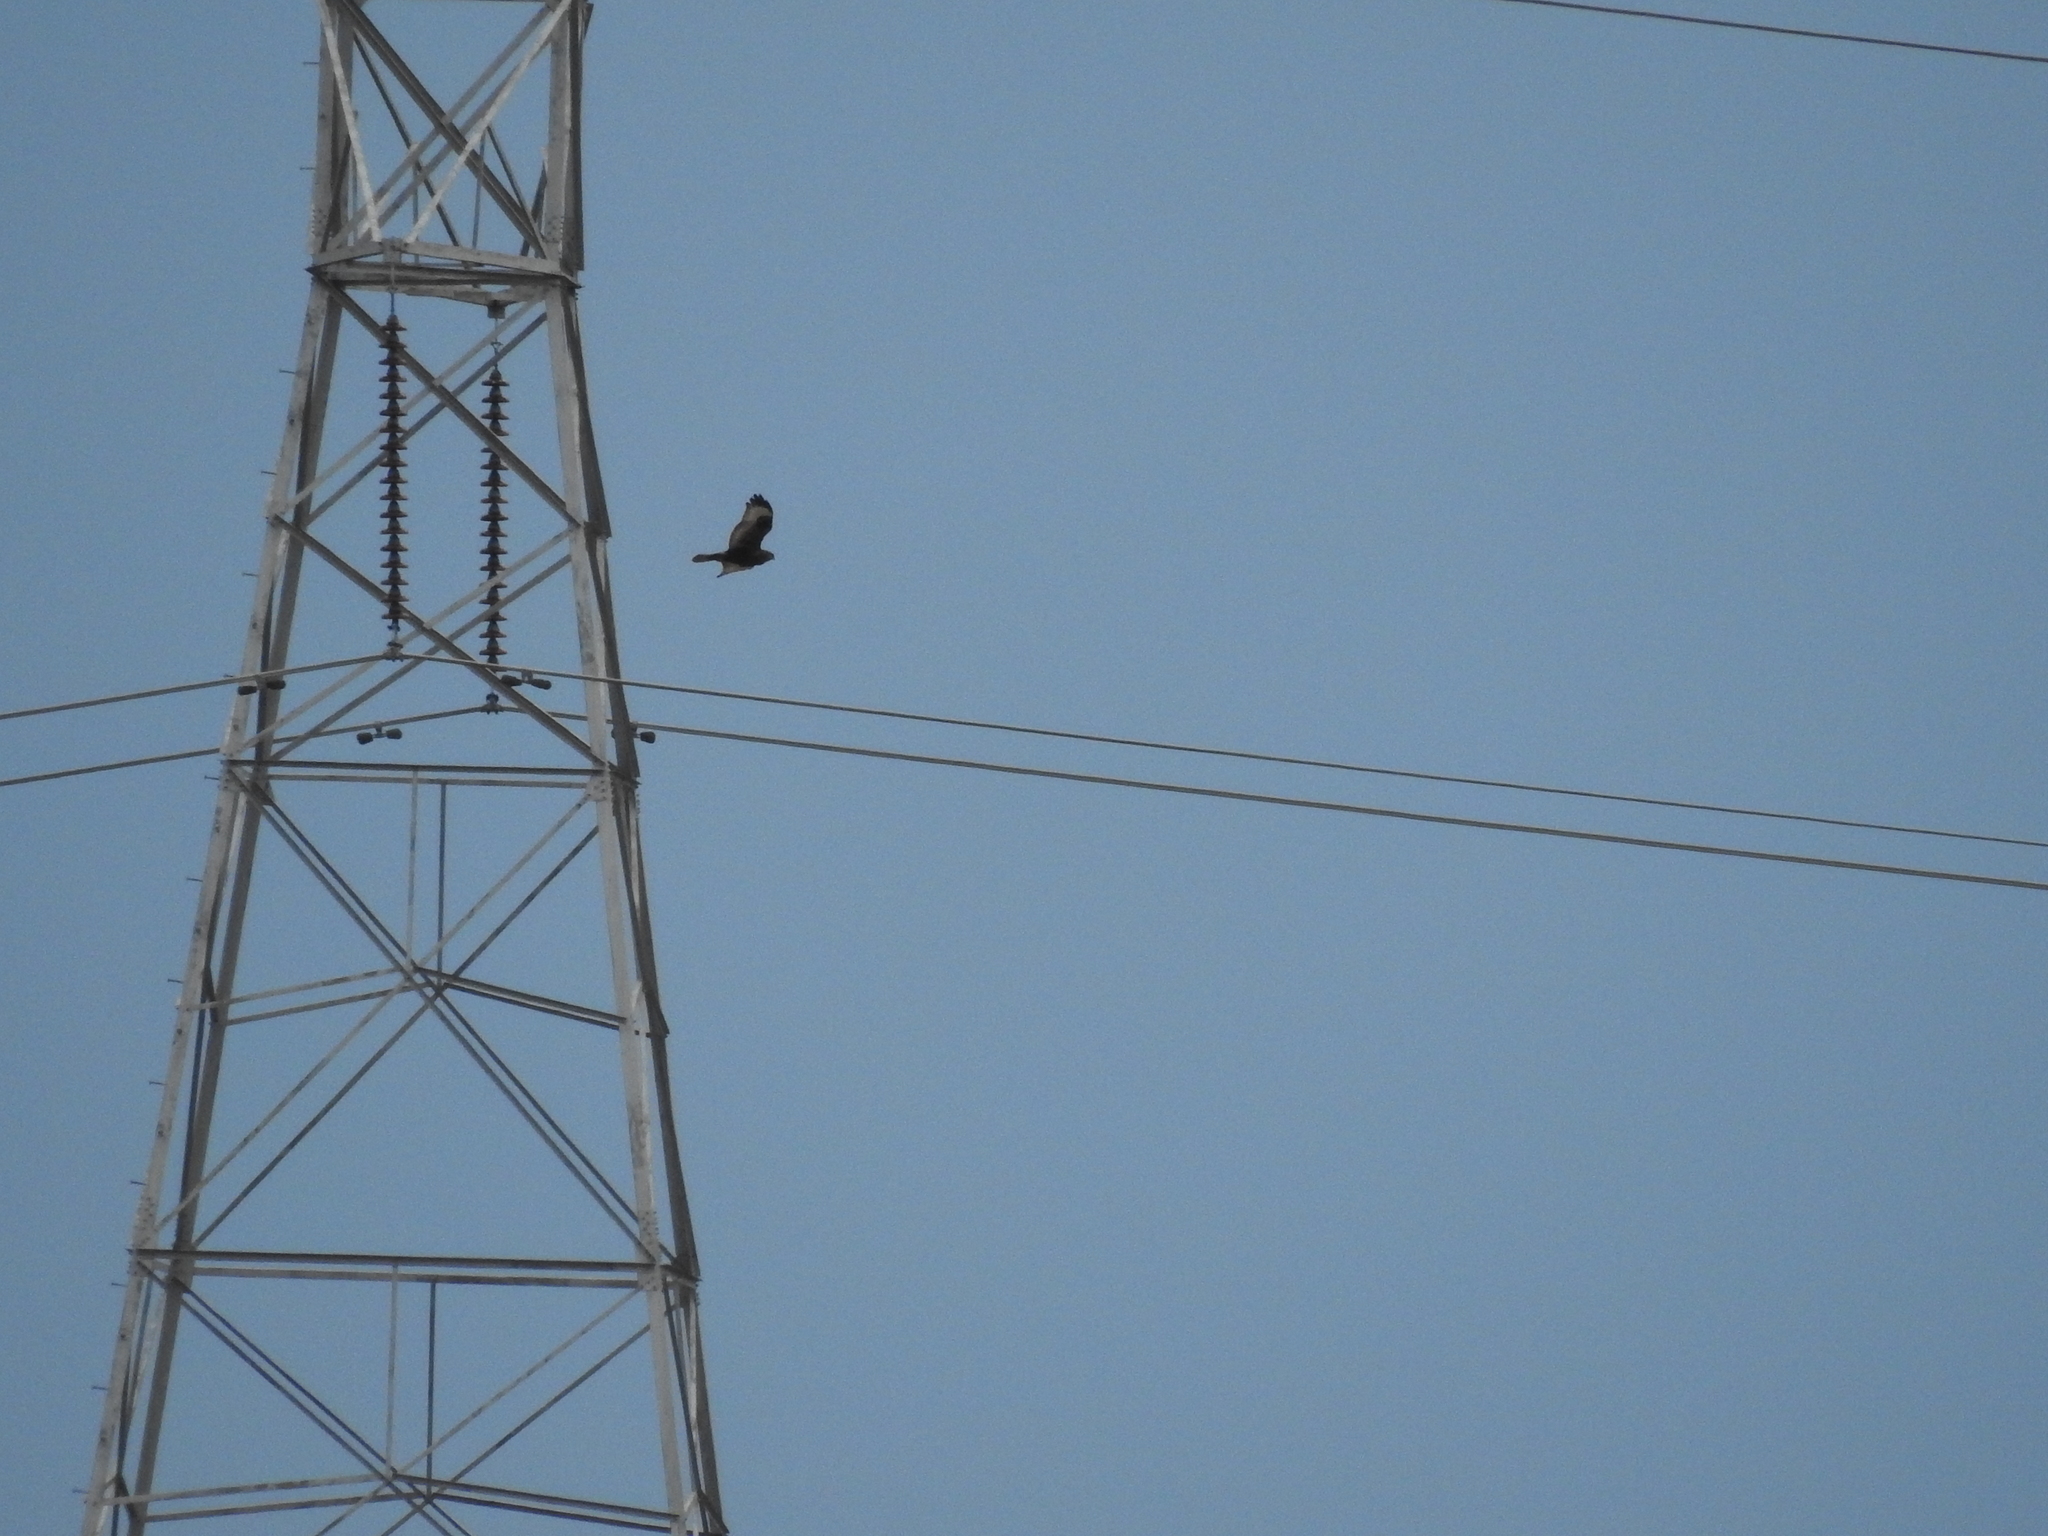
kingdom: Animalia
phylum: Chordata
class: Aves
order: Accipitriformes
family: Accipitridae
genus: Buteo
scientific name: Buteo lagopus
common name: Rough-legged buzzard
